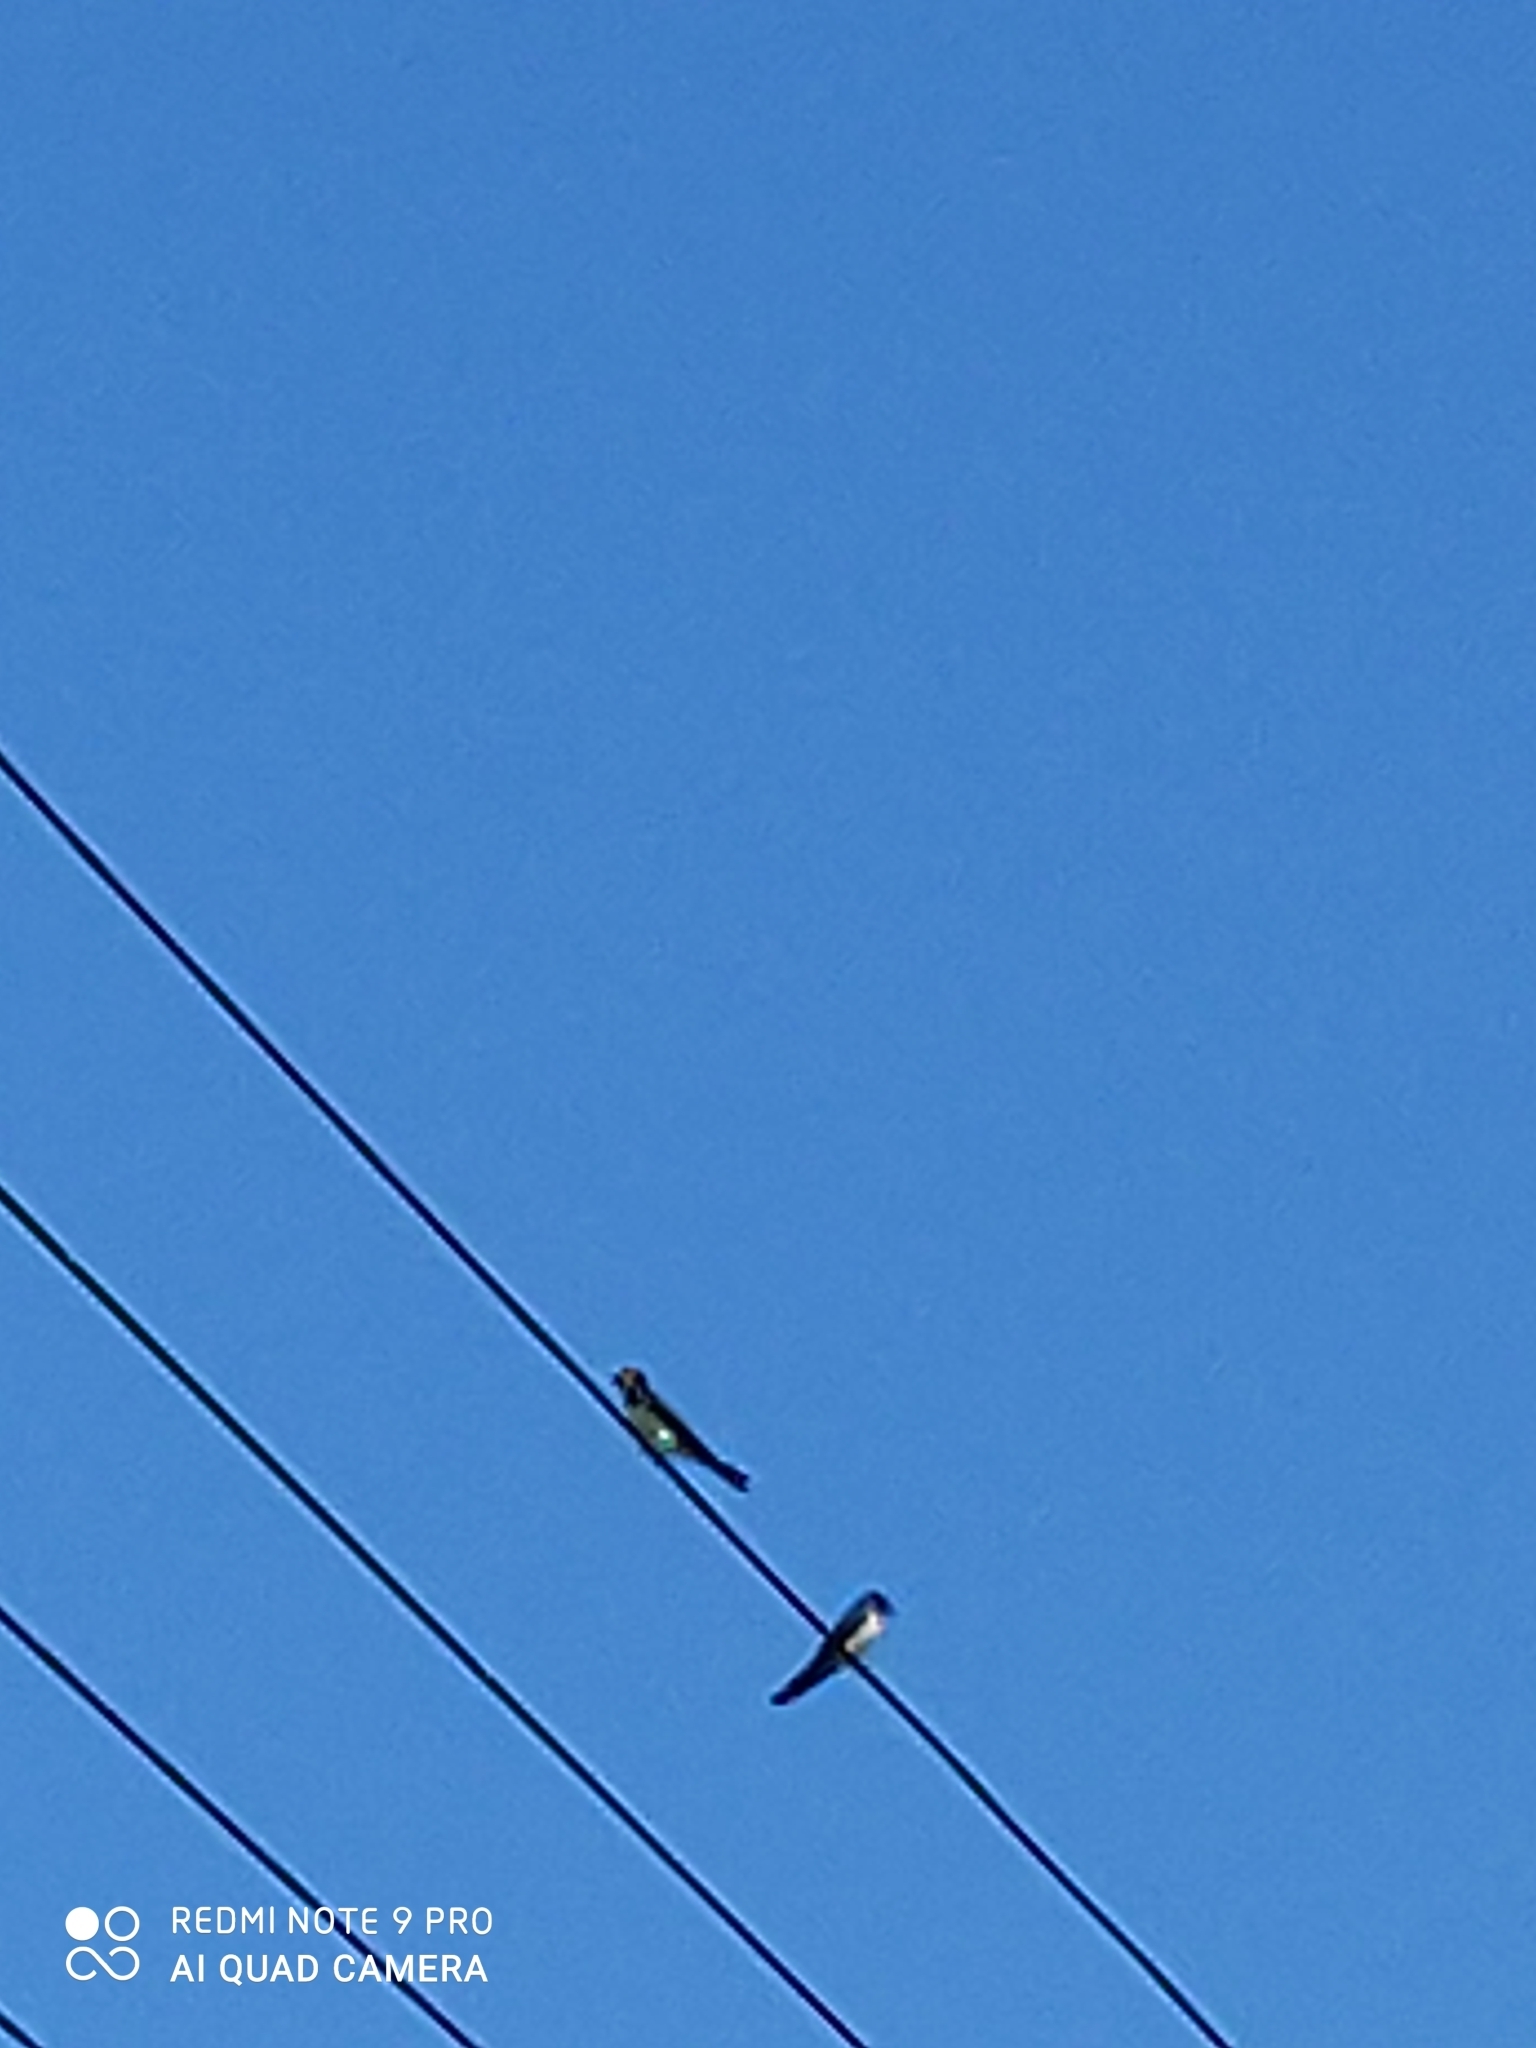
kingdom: Animalia
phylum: Chordata
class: Aves
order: Passeriformes
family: Hirundinidae
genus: Delichon
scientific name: Delichon urbicum
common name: Common house martin
